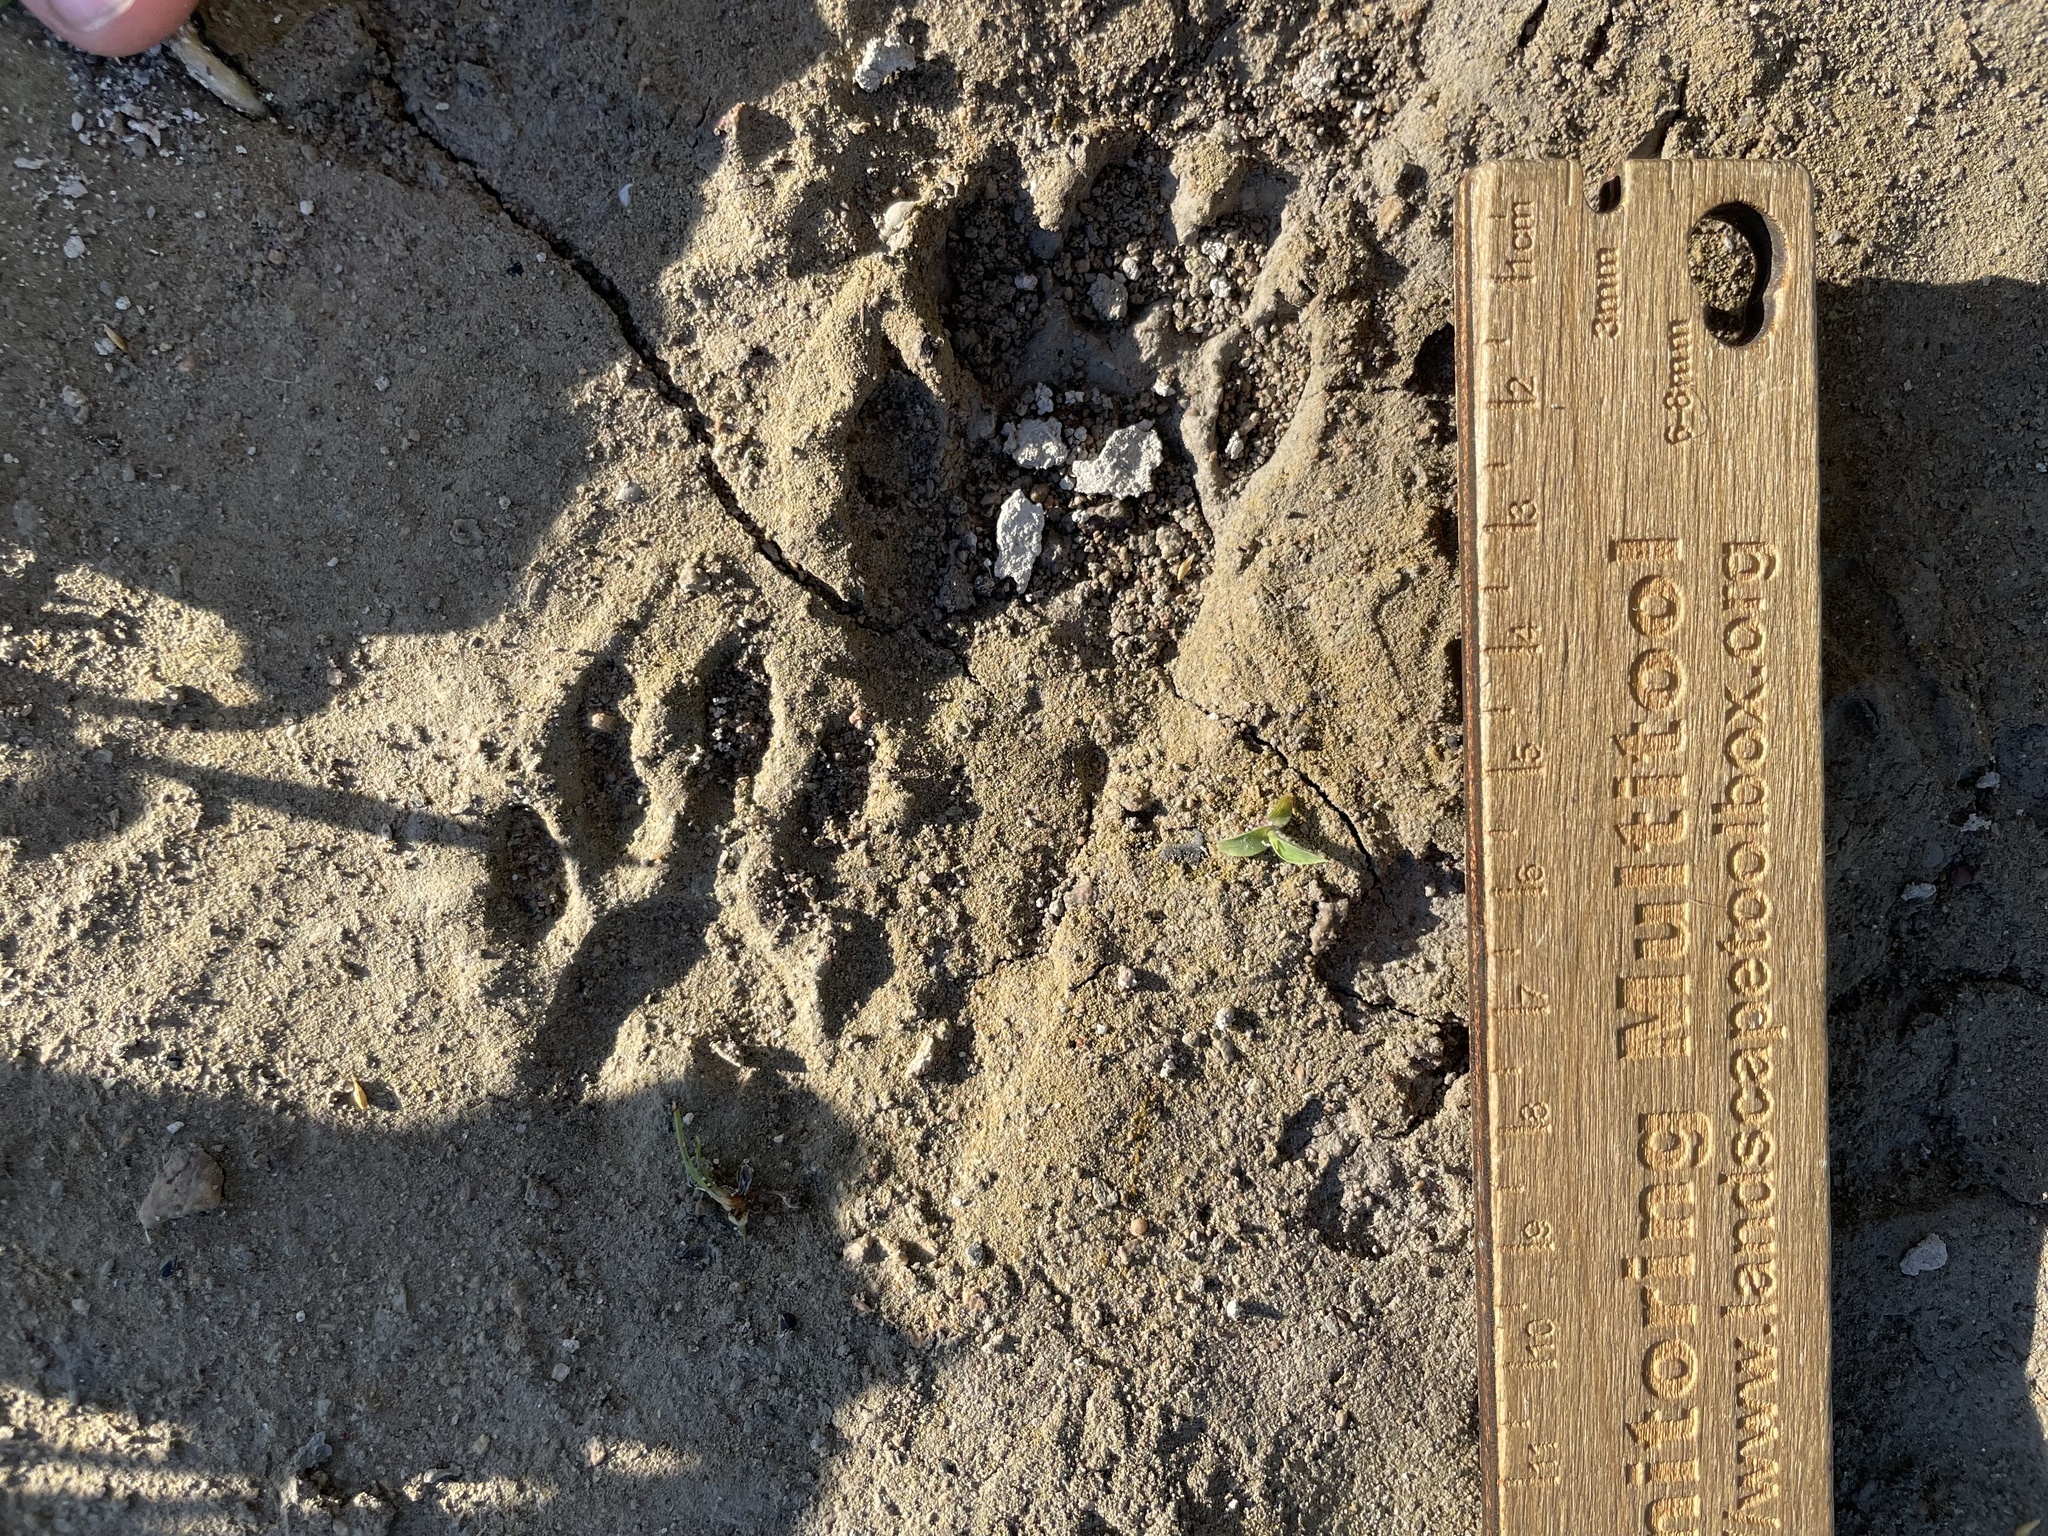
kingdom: Animalia
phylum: Chordata
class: Mammalia
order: Carnivora
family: Procyonidae
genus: Procyon
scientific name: Procyon lotor
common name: Raccoon
